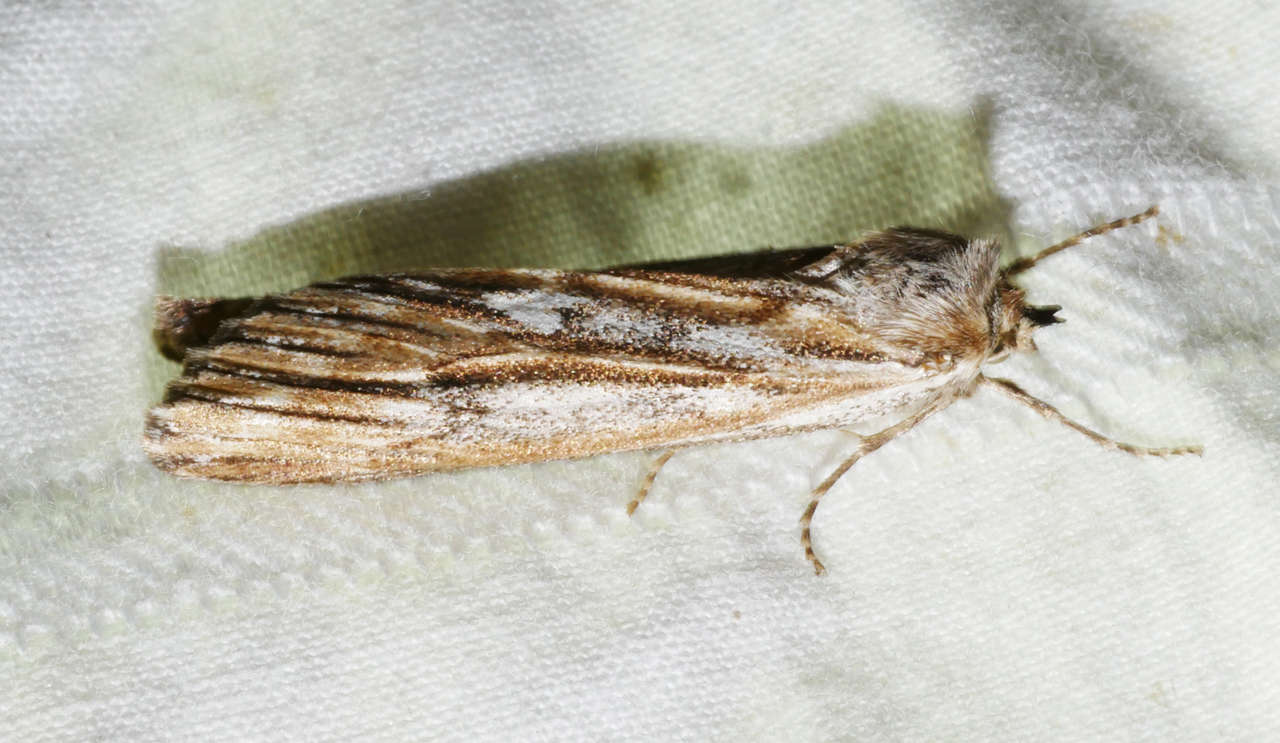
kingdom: Animalia
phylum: Arthropoda
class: Insecta
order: Lepidoptera
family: Geometridae
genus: Ciampa
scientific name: Ciampa arietaria
